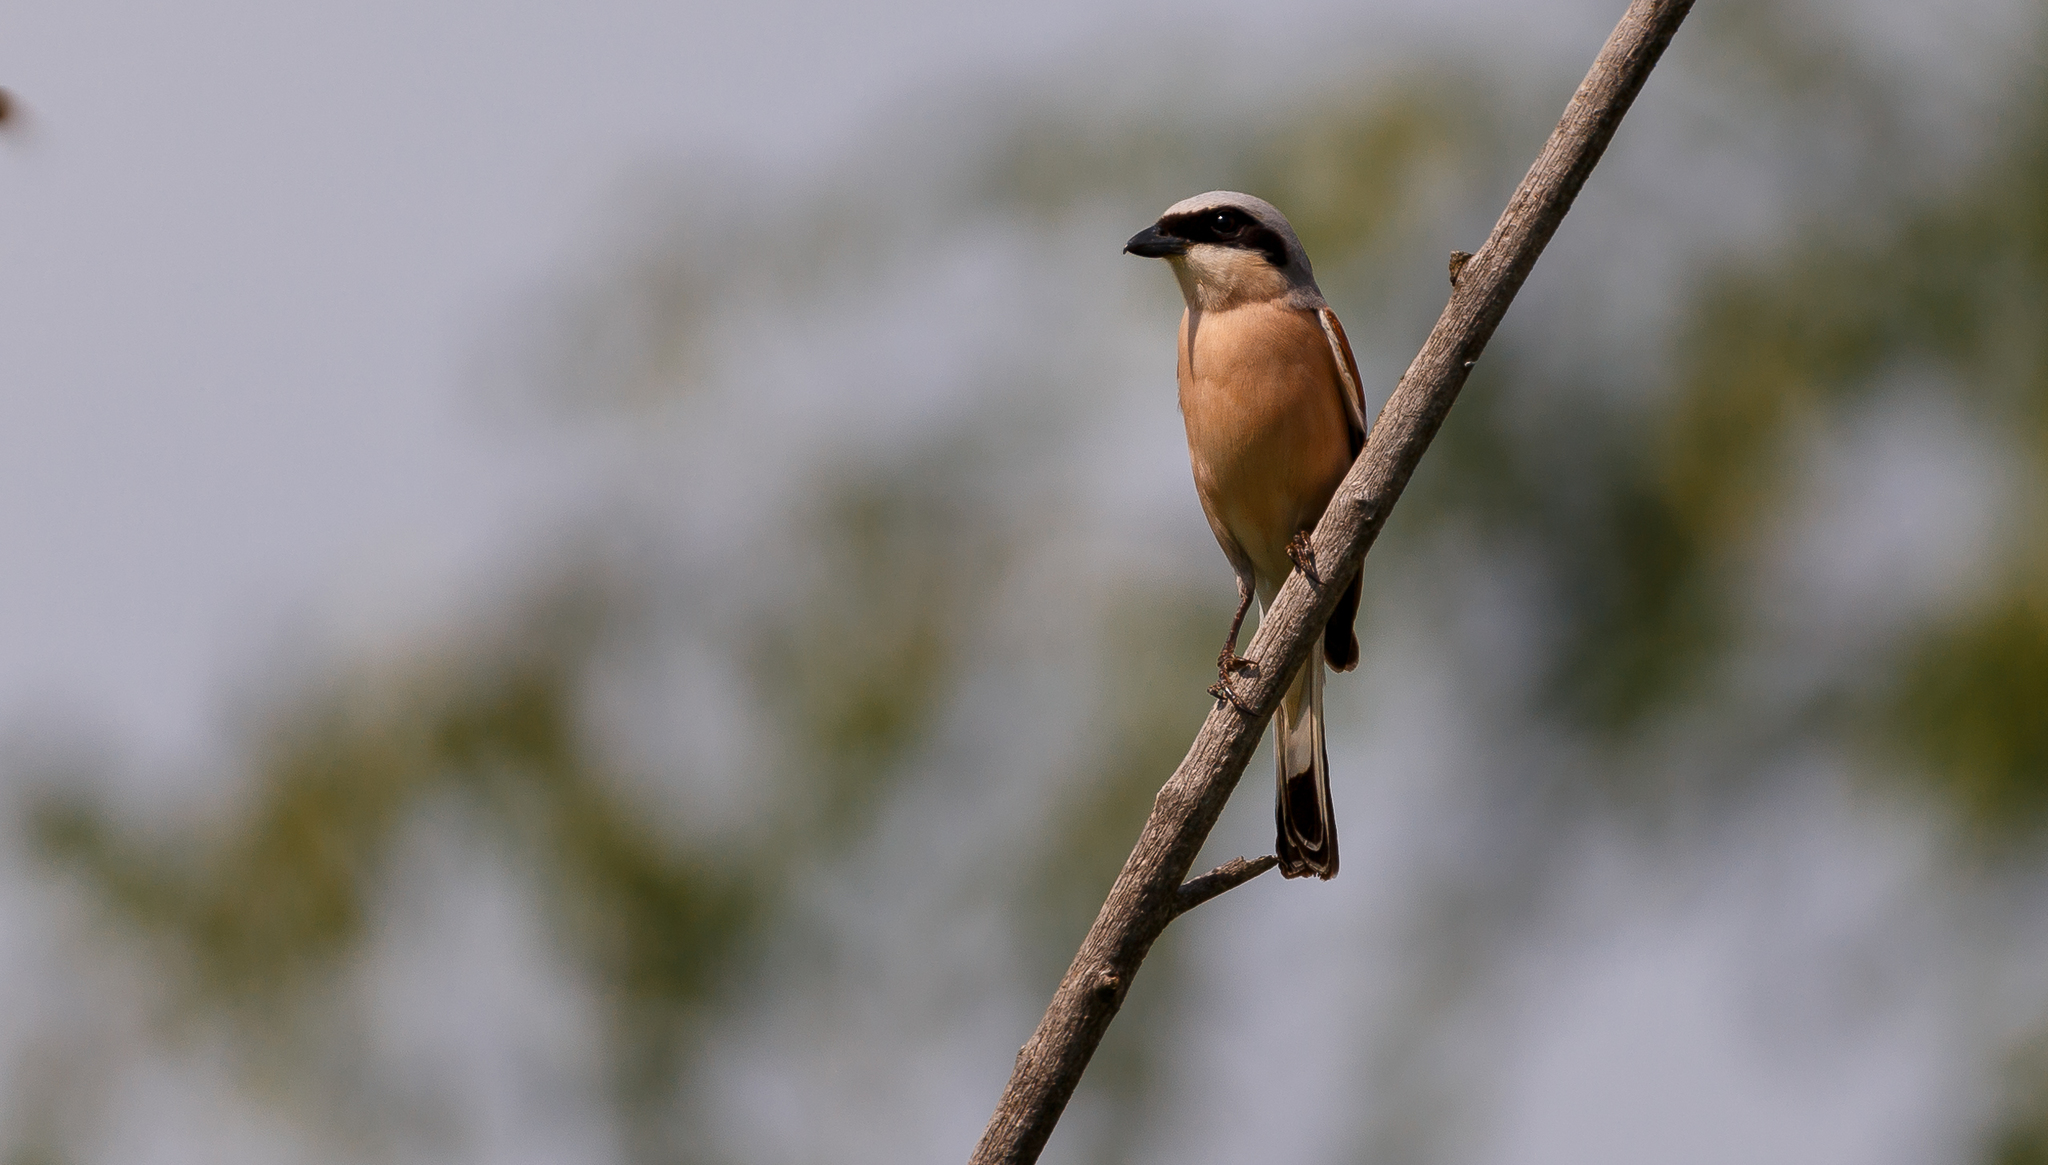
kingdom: Animalia
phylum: Chordata
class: Aves
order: Passeriformes
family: Laniidae
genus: Lanius
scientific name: Lanius collurio
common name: Red-backed shrike
